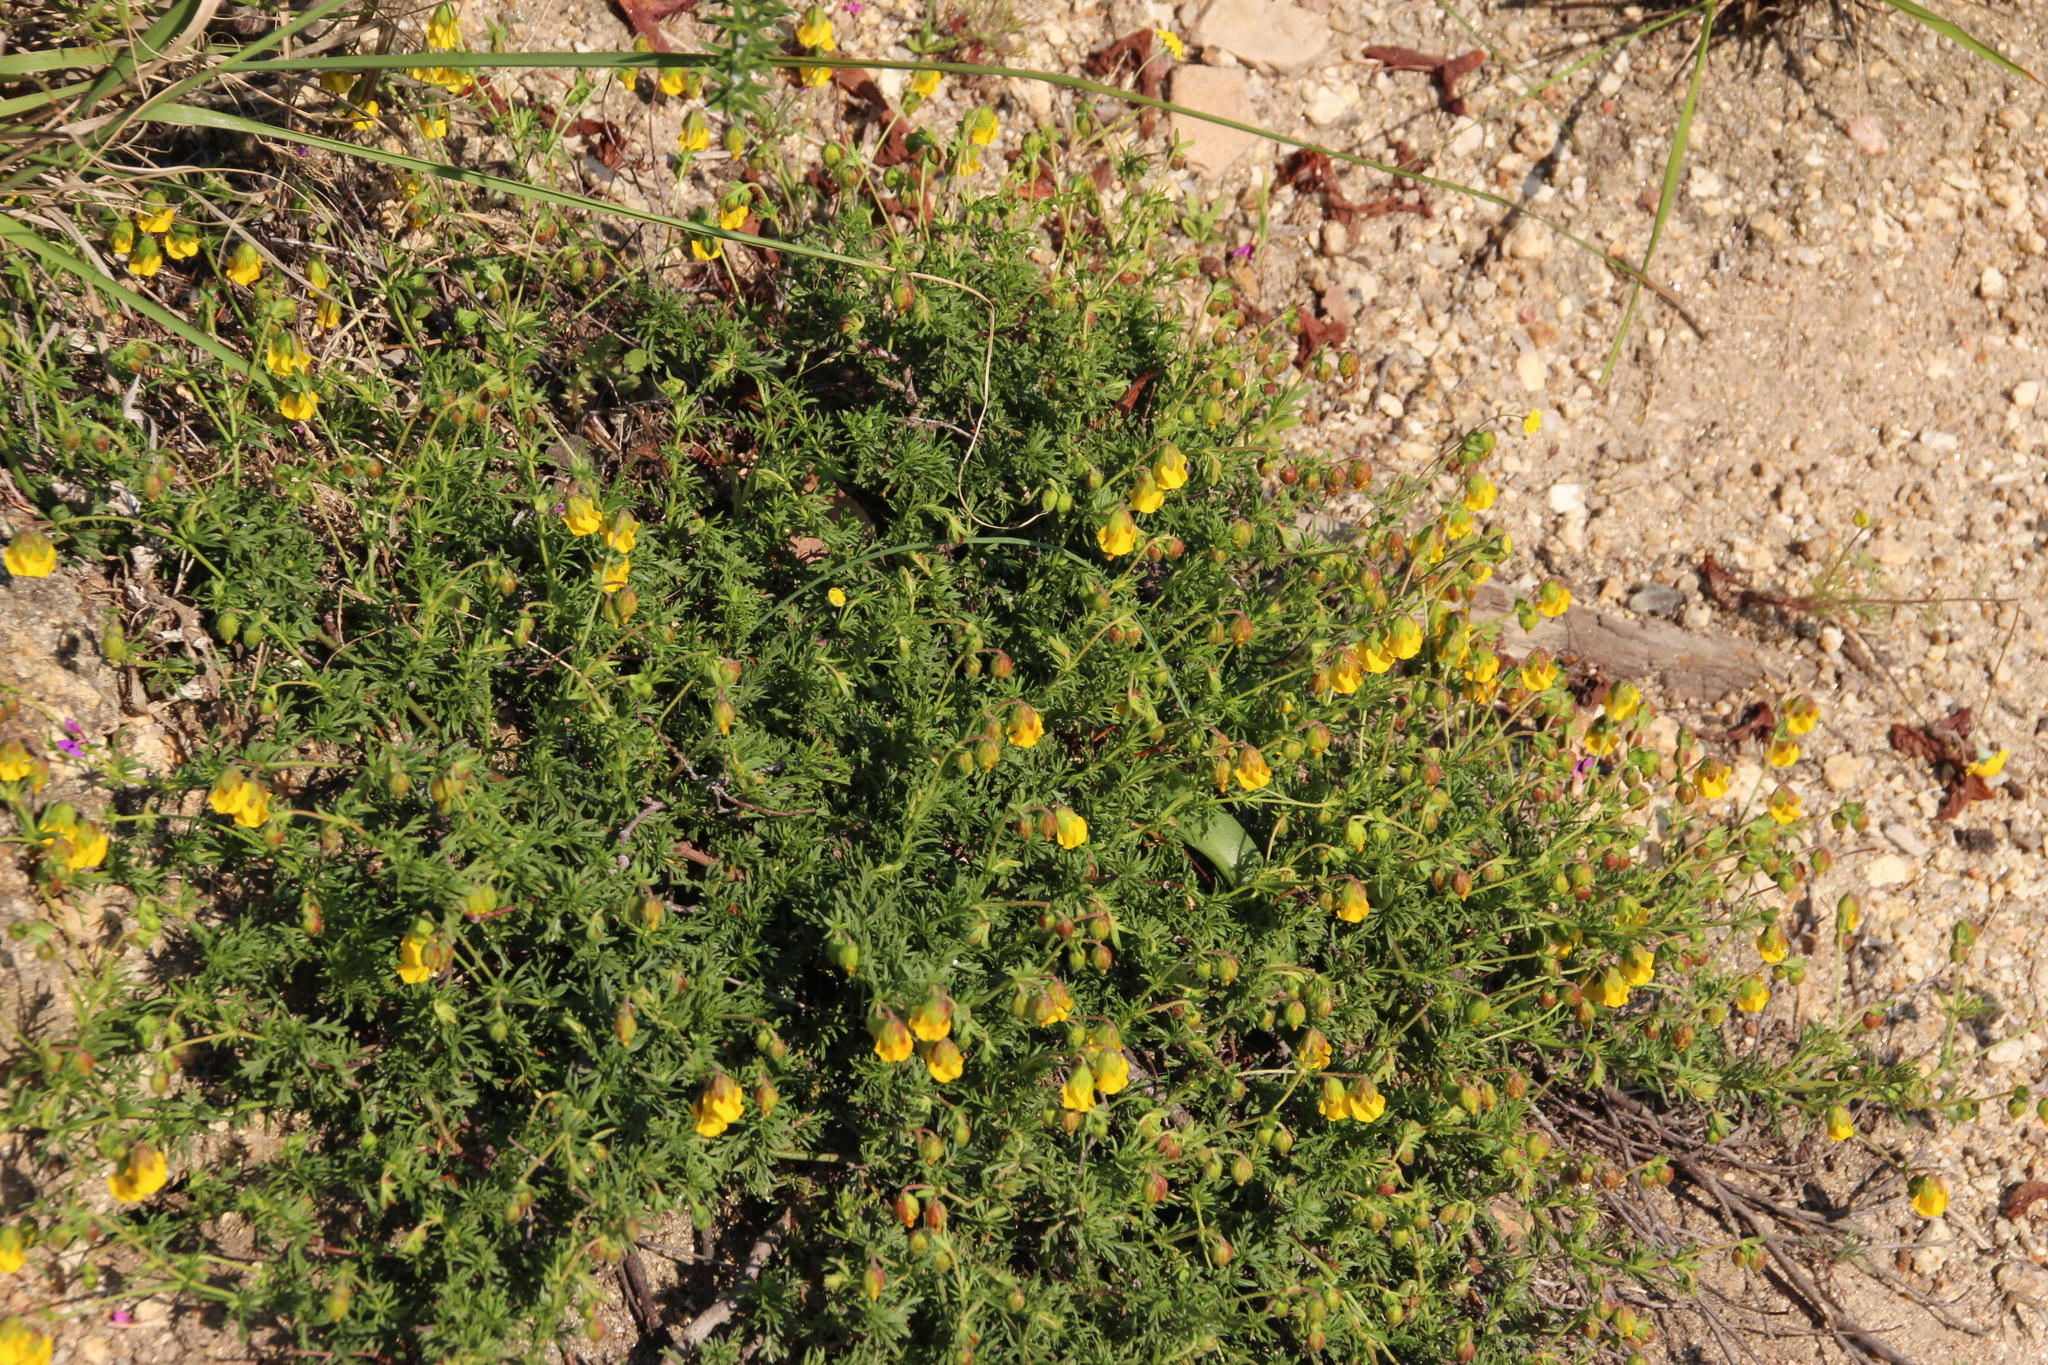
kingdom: Plantae
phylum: Tracheophyta
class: Magnoliopsida
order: Malvales
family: Malvaceae
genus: Hermannia
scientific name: Hermannia pinnata
